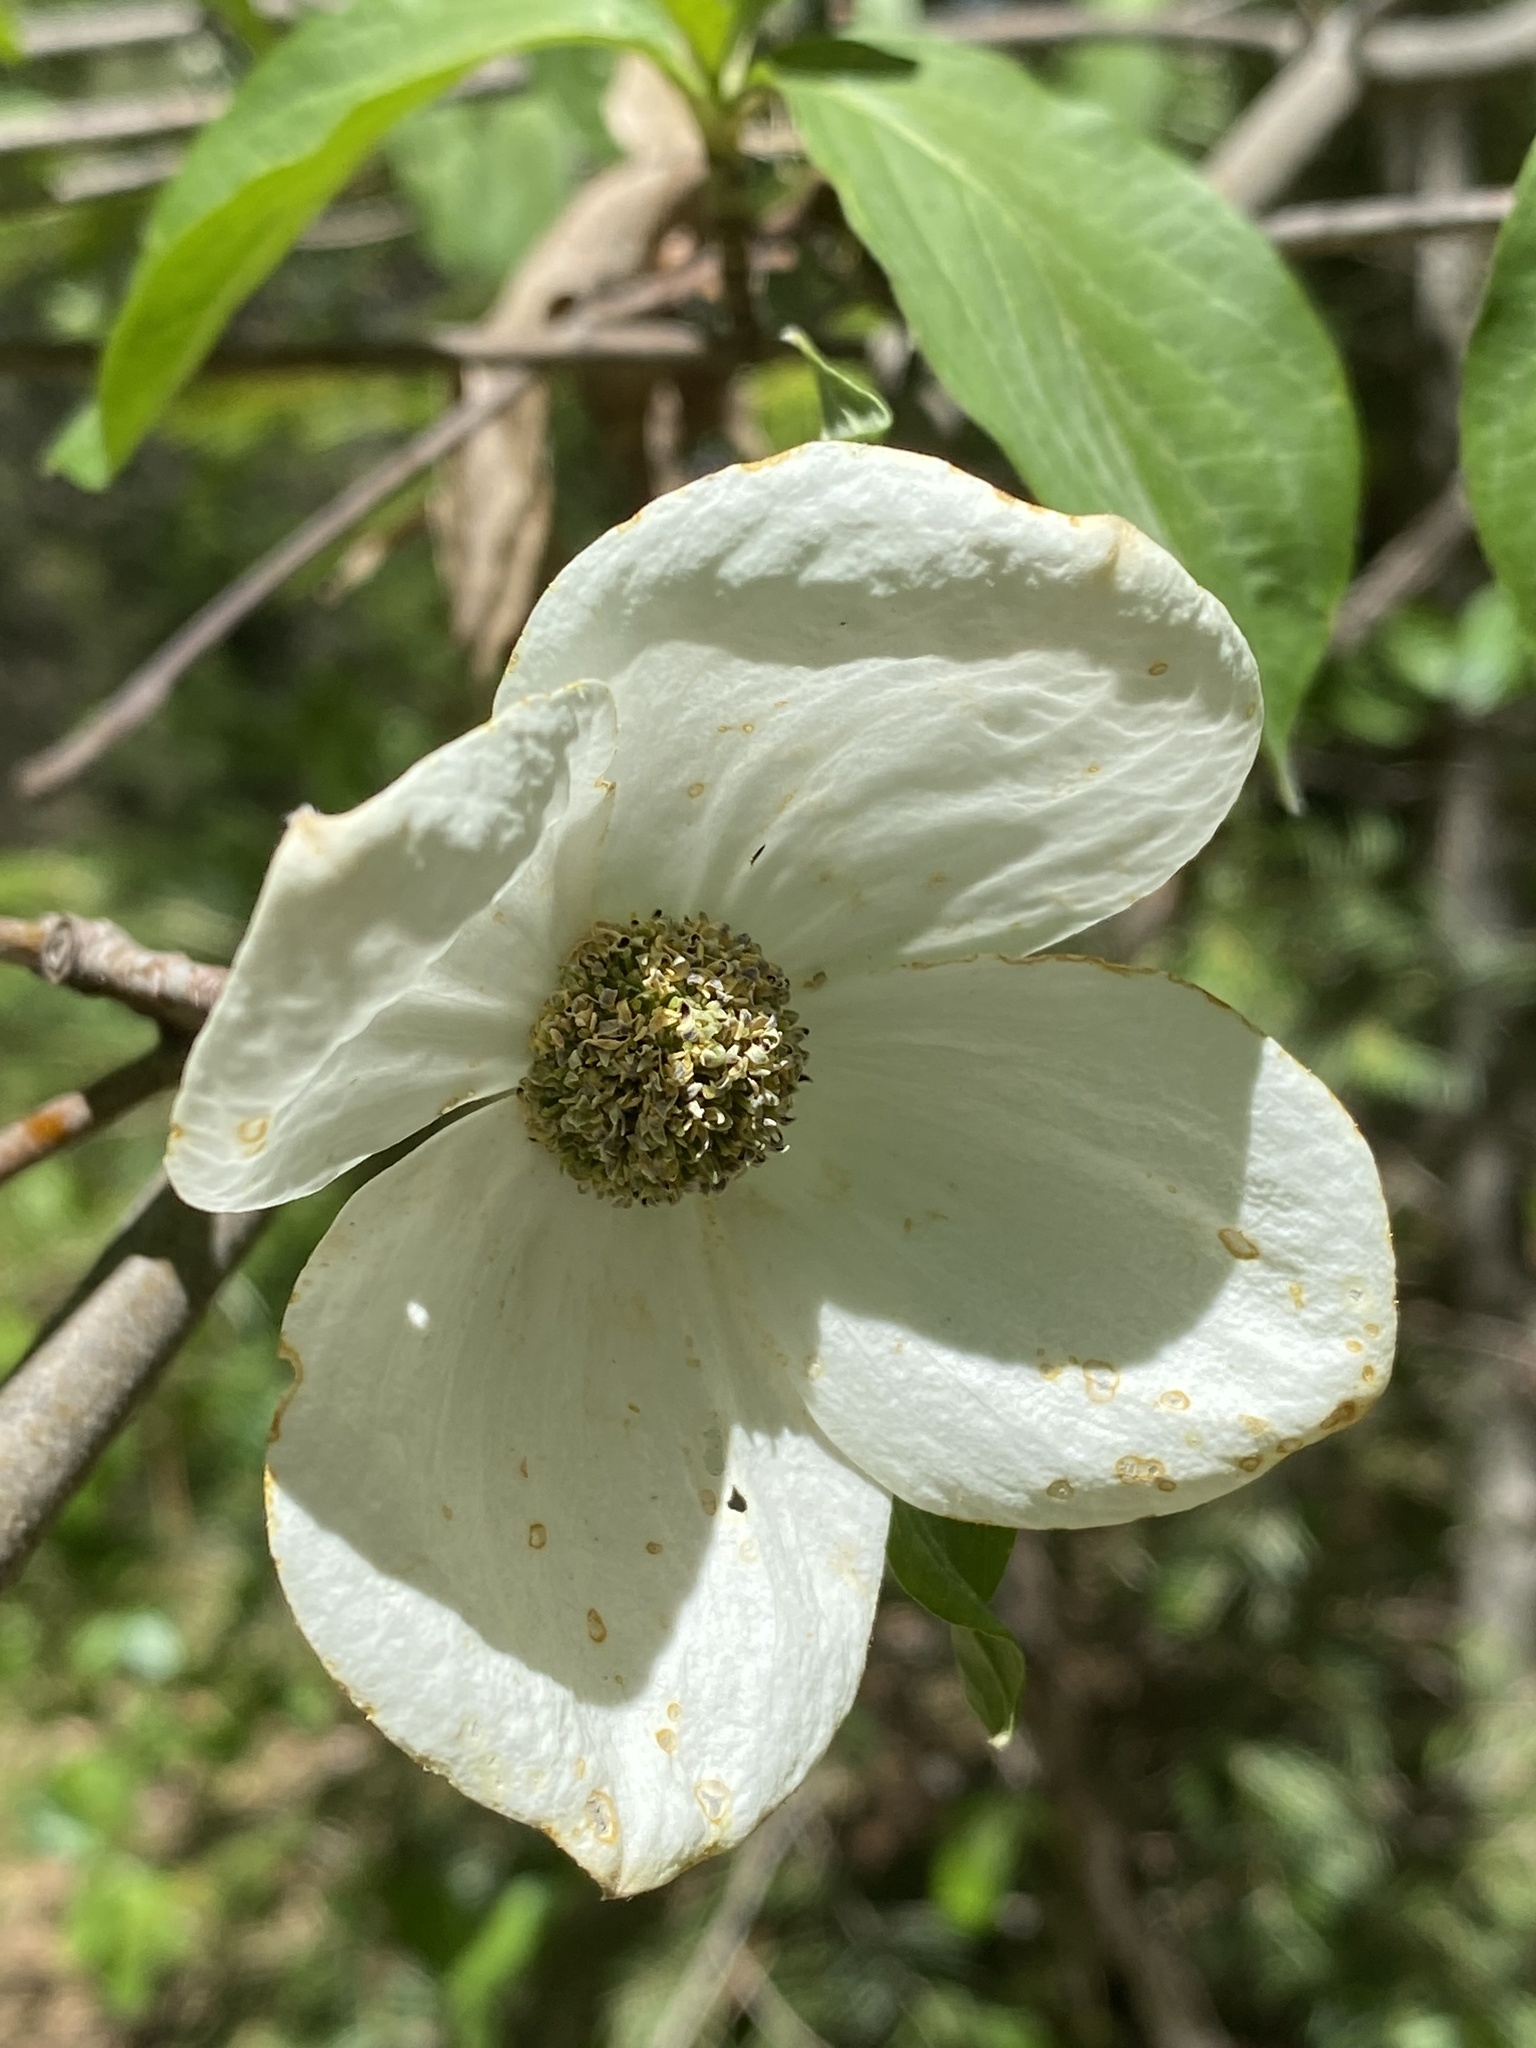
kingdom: Plantae
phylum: Tracheophyta
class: Magnoliopsida
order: Cornales
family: Cornaceae
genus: Cornus
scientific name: Cornus nuttallii
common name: Pacific dogwood
